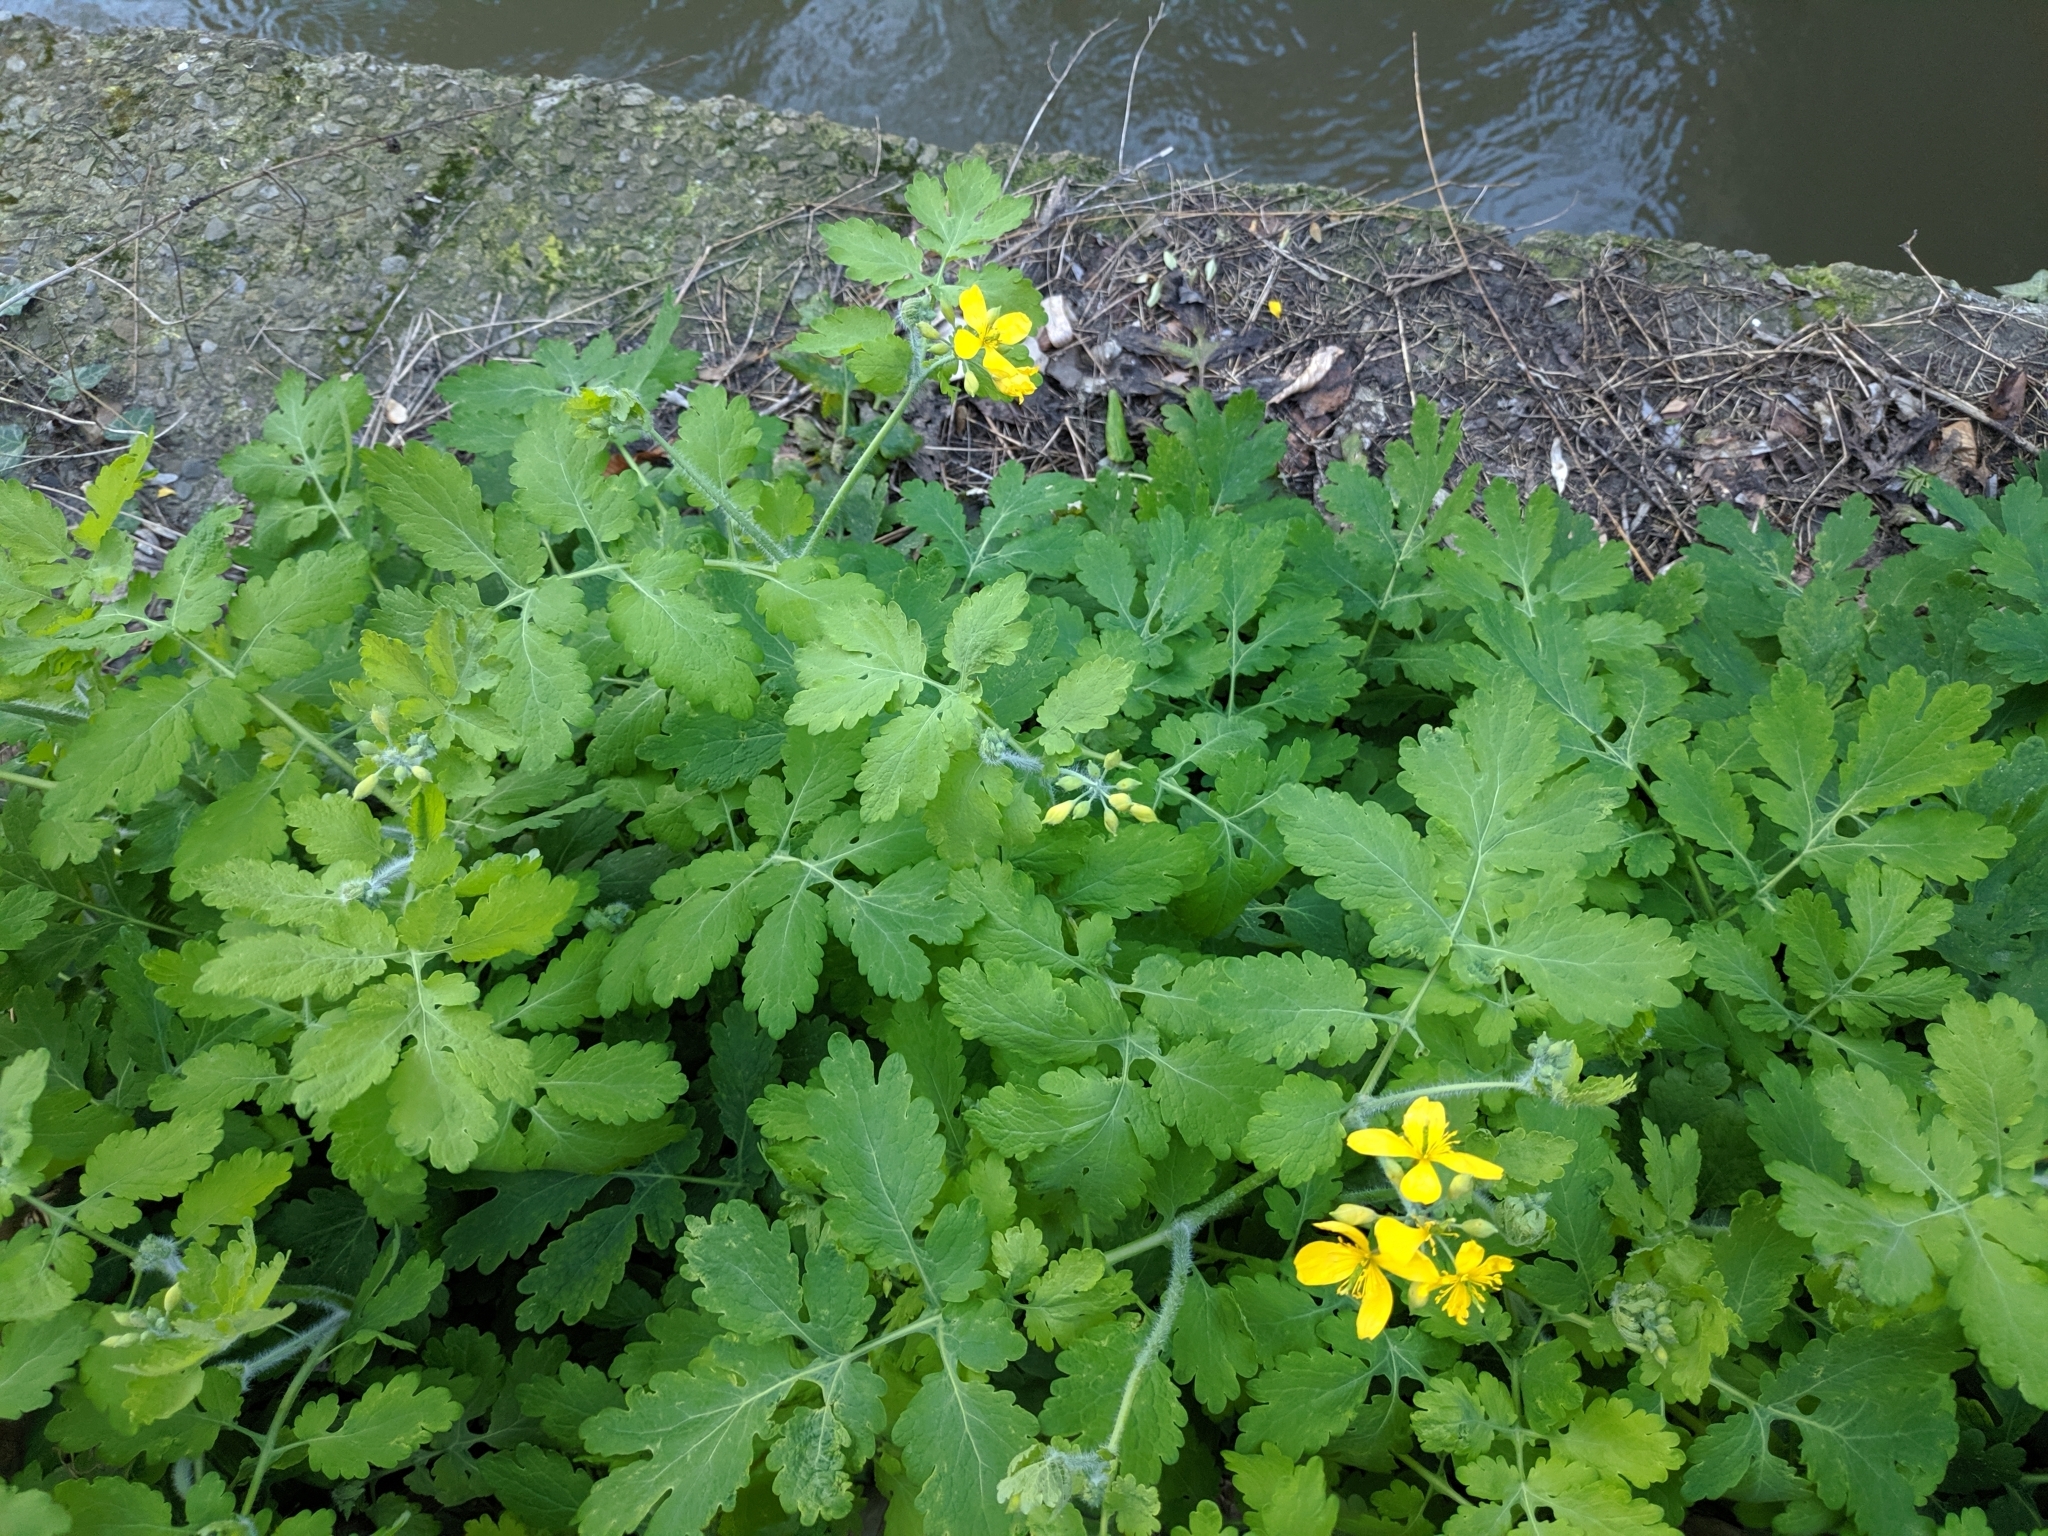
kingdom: Plantae
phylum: Tracheophyta
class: Magnoliopsida
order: Ranunculales
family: Papaveraceae
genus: Chelidonium
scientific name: Chelidonium majus
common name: Greater celandine
